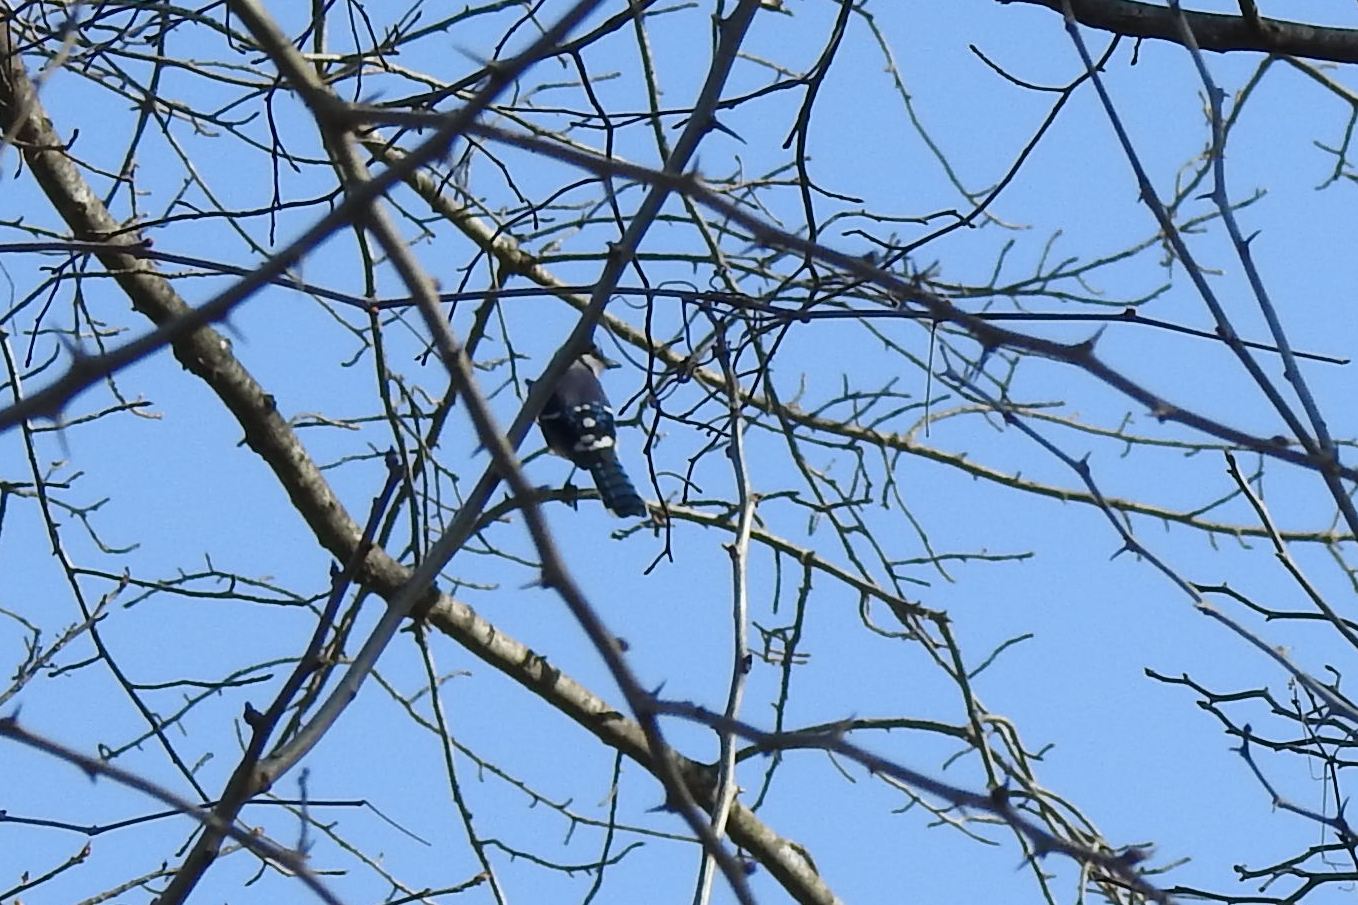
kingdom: Animalia
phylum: Chordata
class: Aves
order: Passeriformes
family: Corvidae
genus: Cyanocitta
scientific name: Cyanocitta cristata
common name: Blue jay
